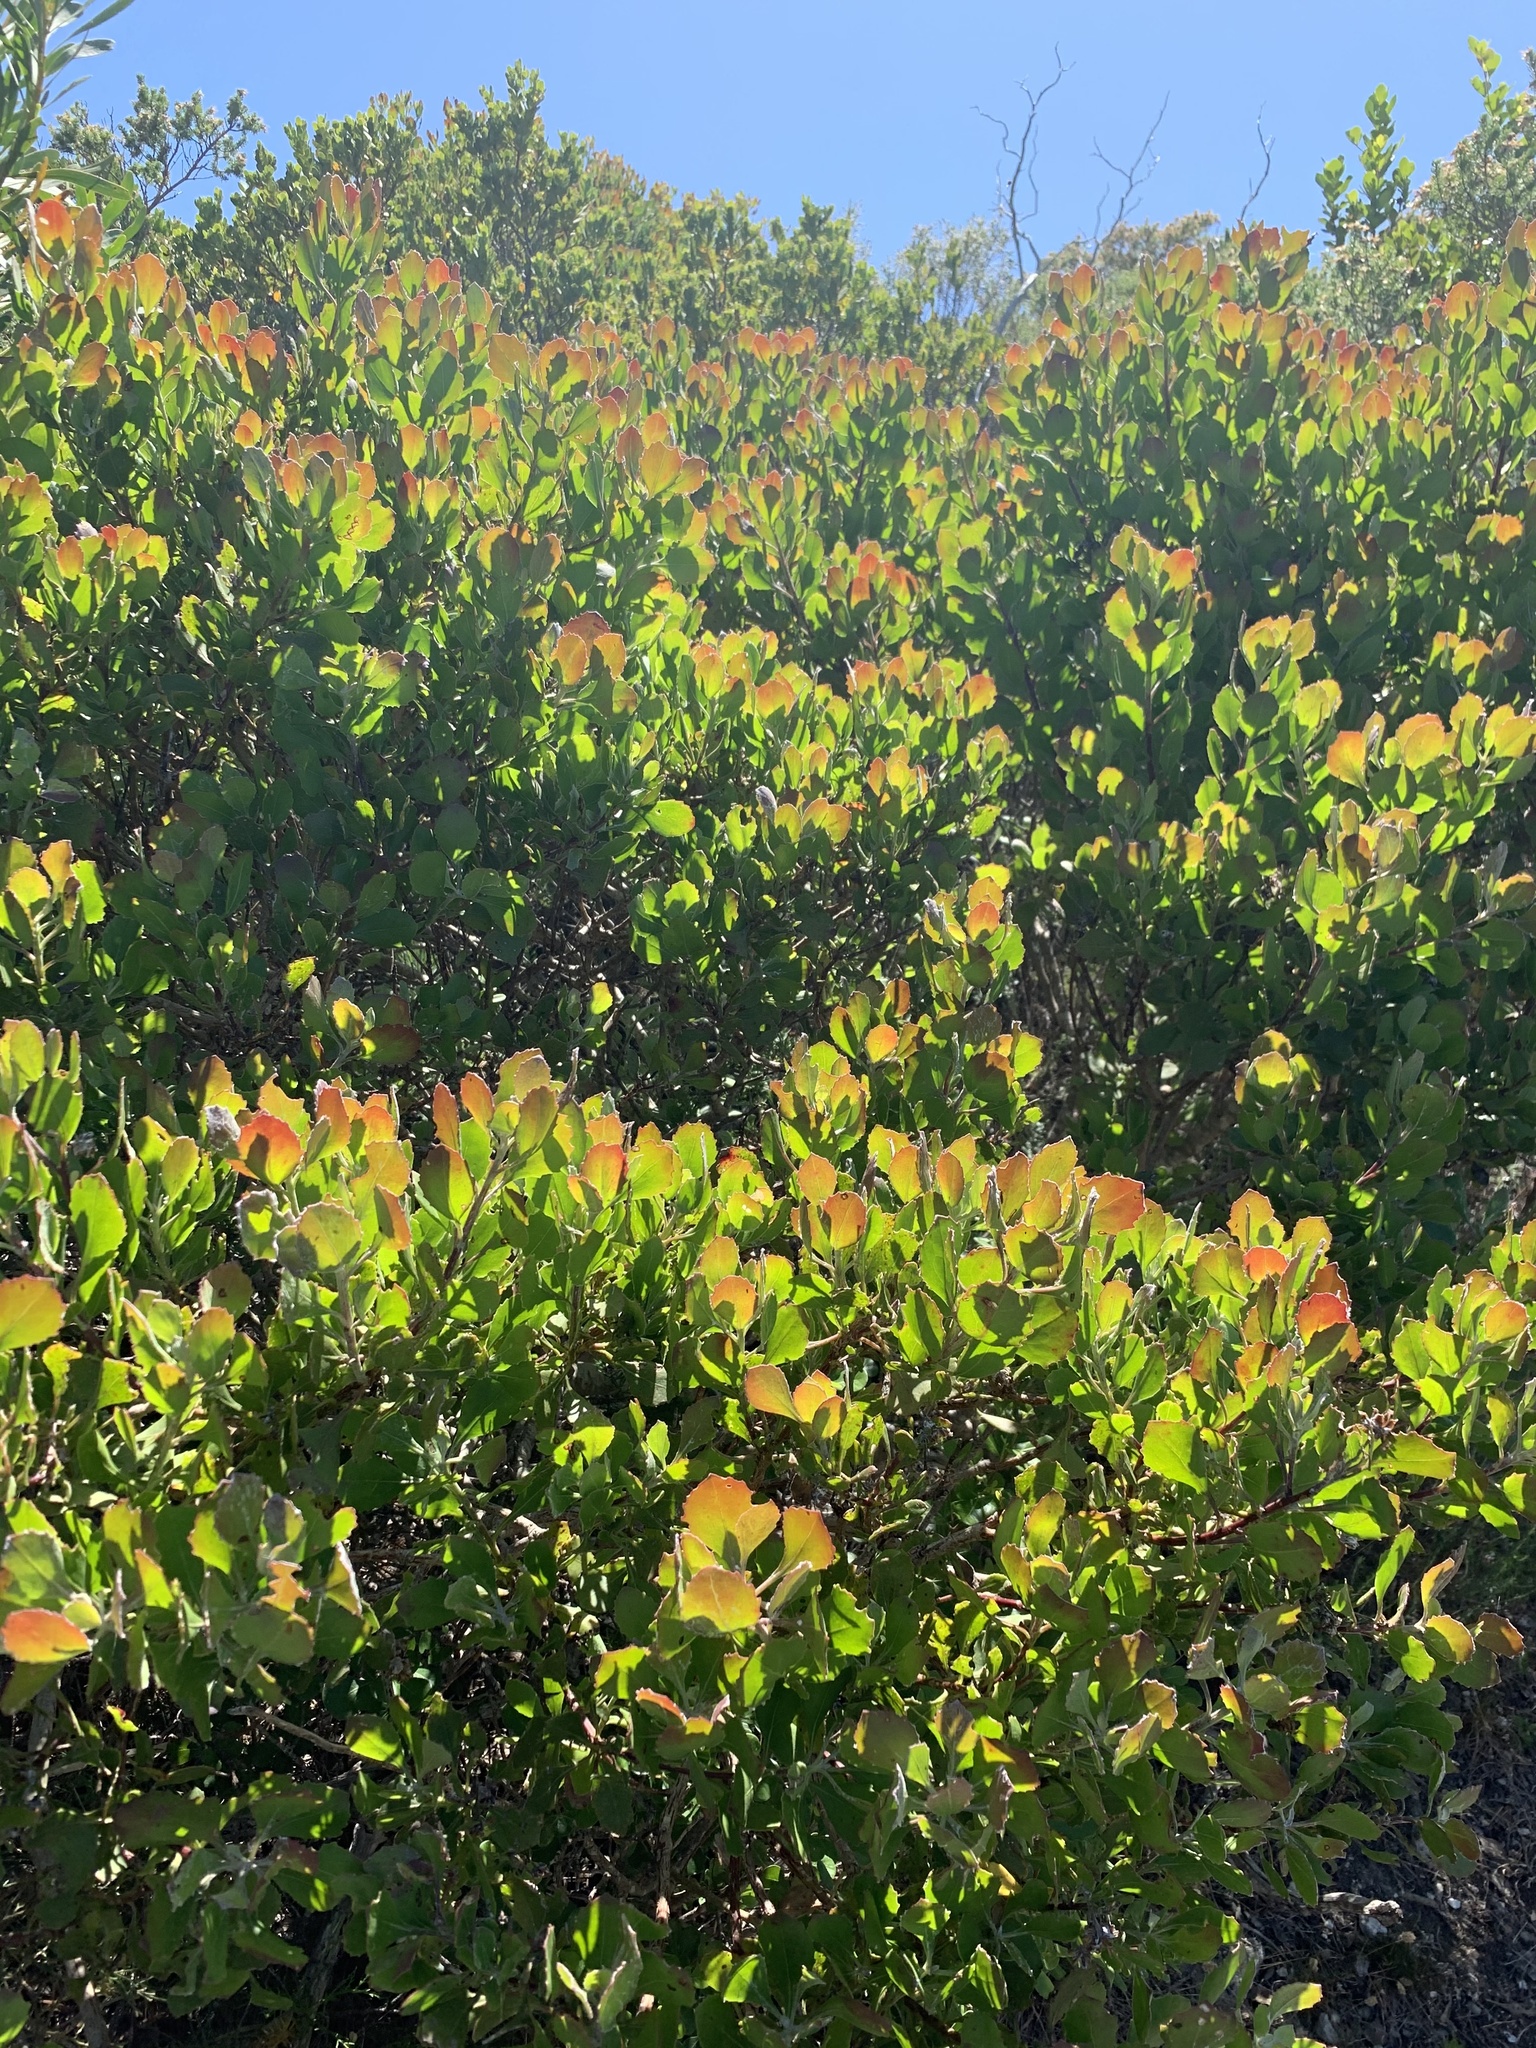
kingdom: Plantae
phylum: Tracheophyta
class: Magnoliopsida
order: Asterales
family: Asteraceae
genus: Osteospermum
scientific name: Osteospermum moniliferum
